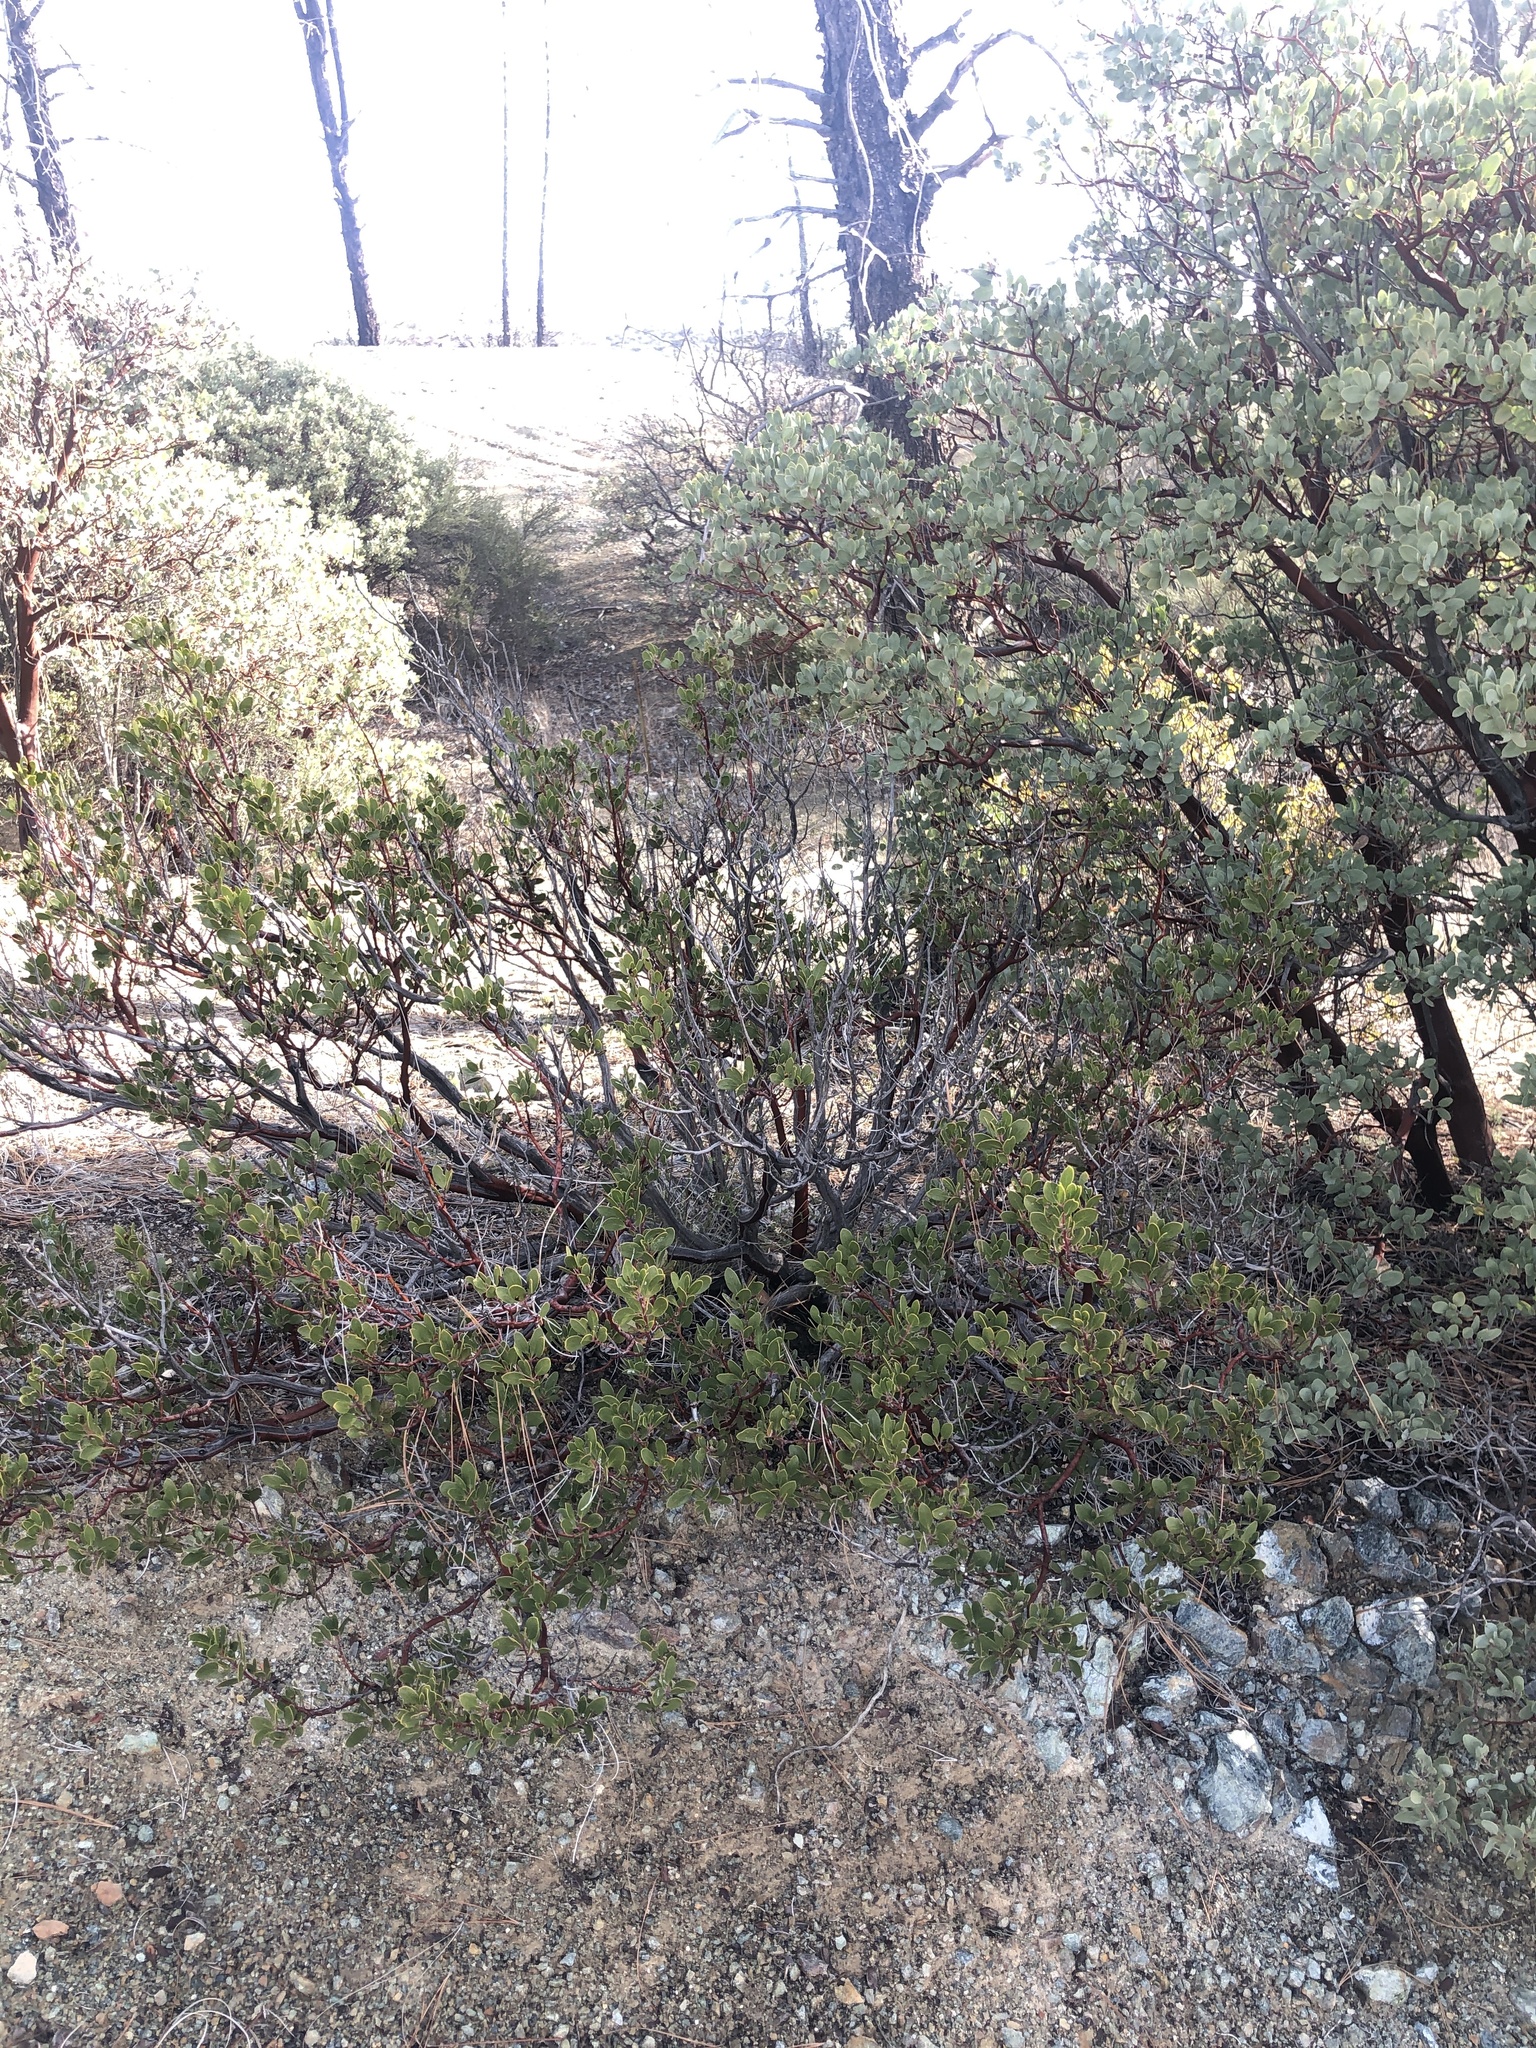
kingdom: Plantae
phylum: Tracheophyta
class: Magnoliopsida
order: Ericales
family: Ericaceae
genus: Arctostaphylos
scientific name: Arctostaphylos pungens
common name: Mexican manzanita
